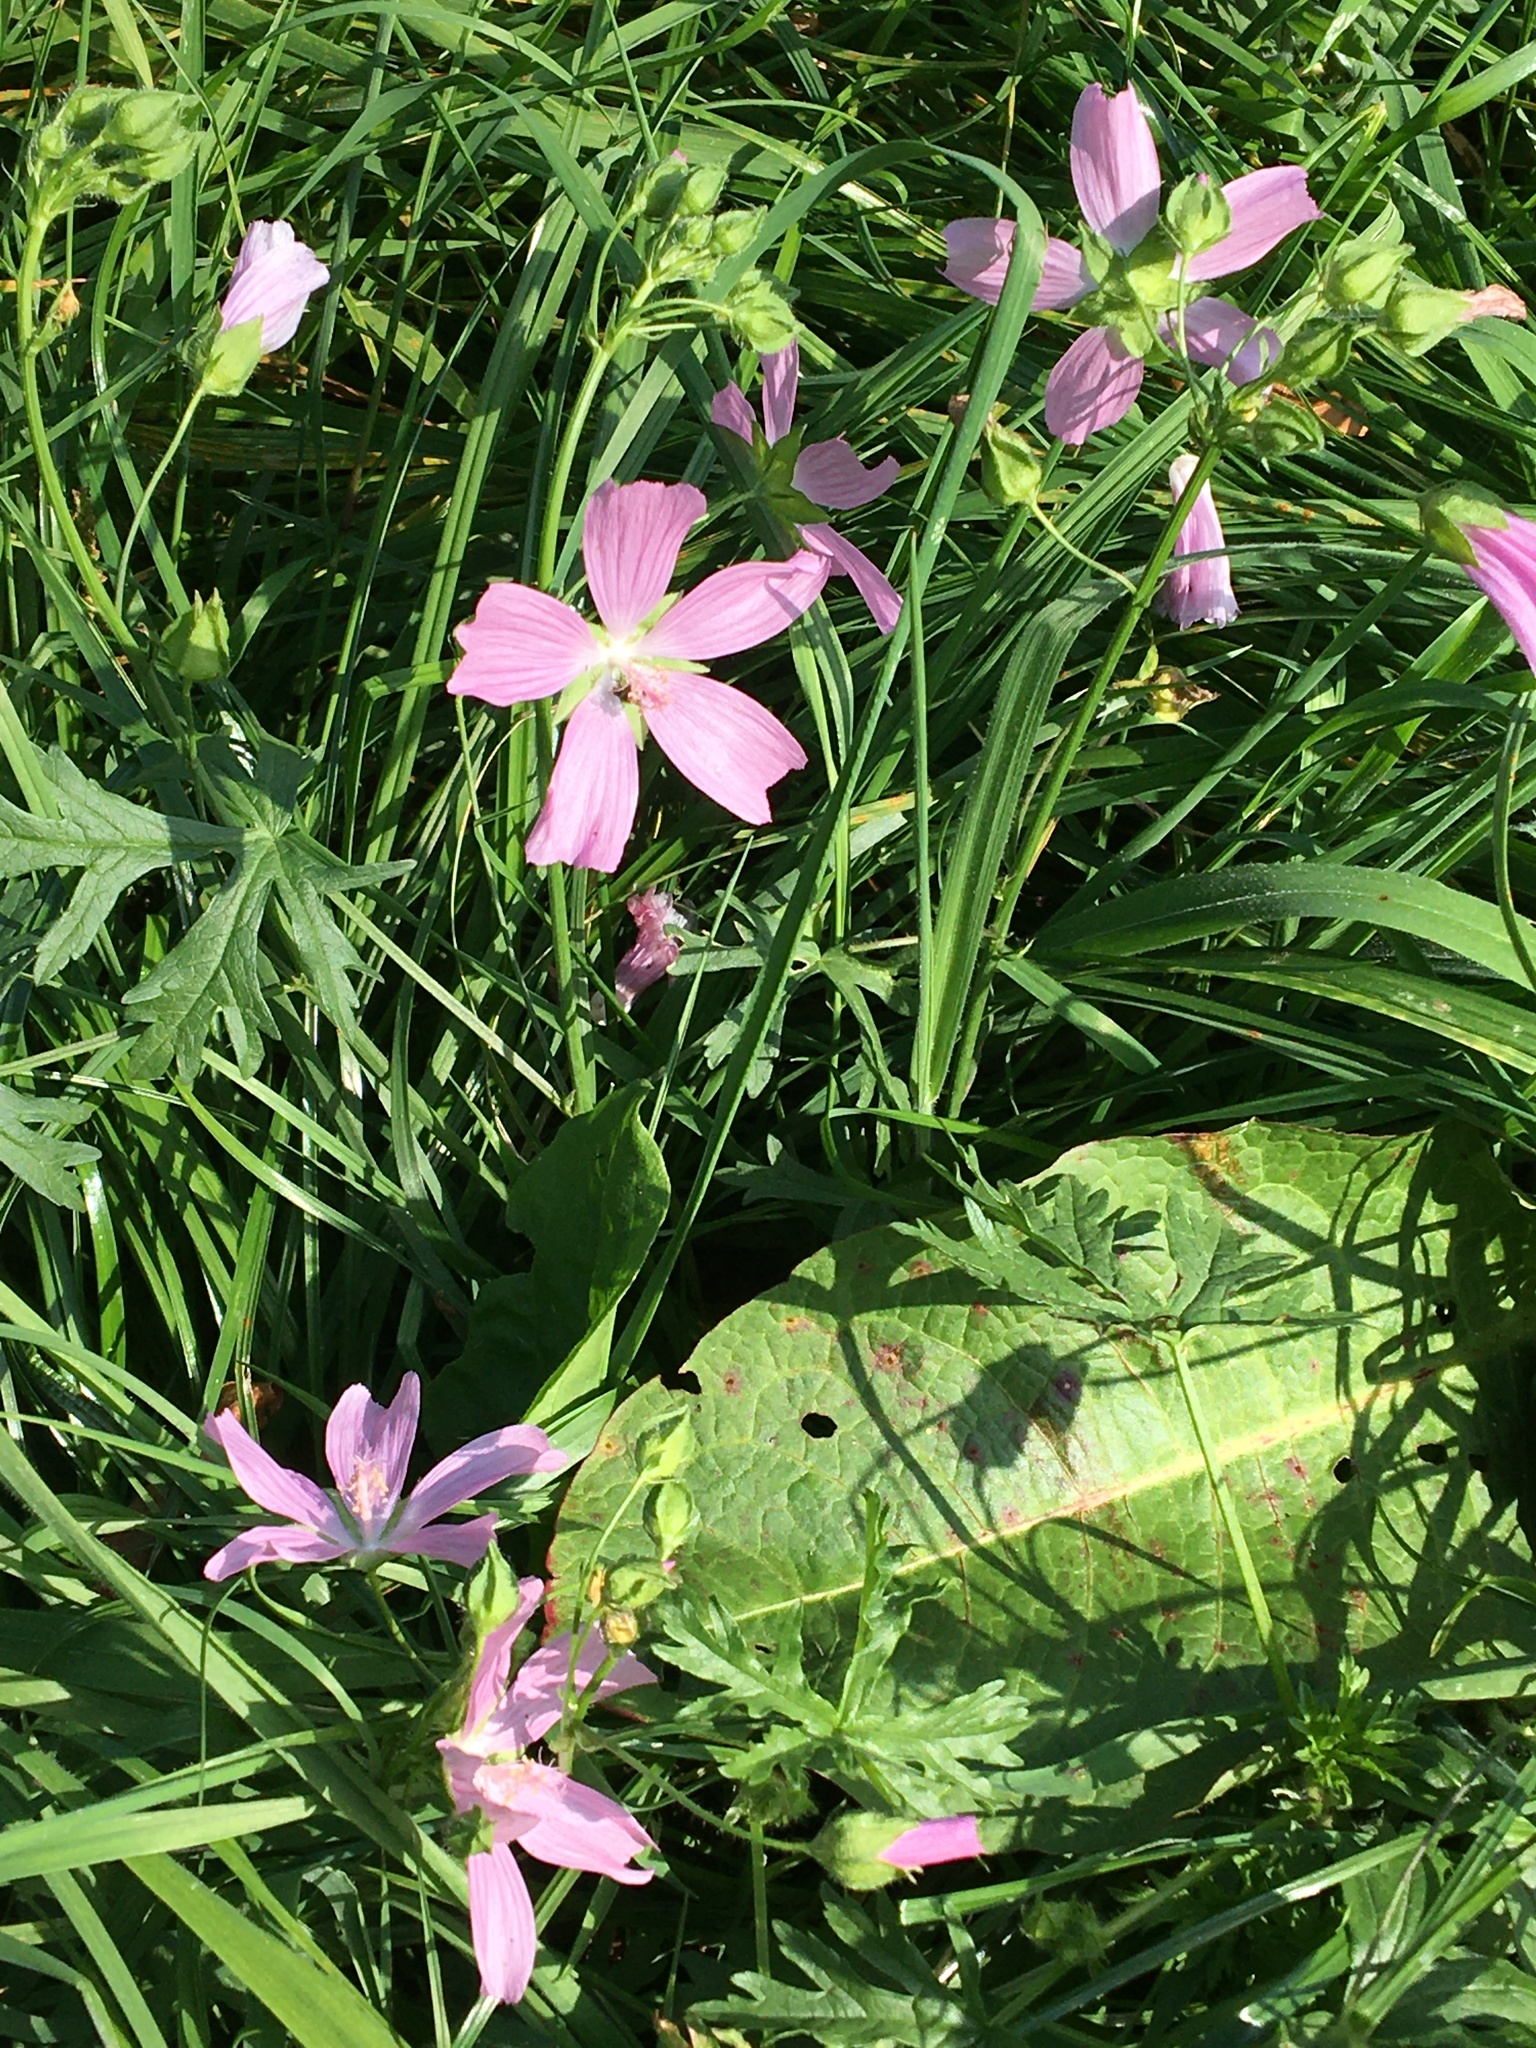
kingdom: Plantae
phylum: Tracheophyta
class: Magnoliopsida
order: Malvales
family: Malvaceae
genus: Malva
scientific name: Malva moschata
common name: Musk mallow
